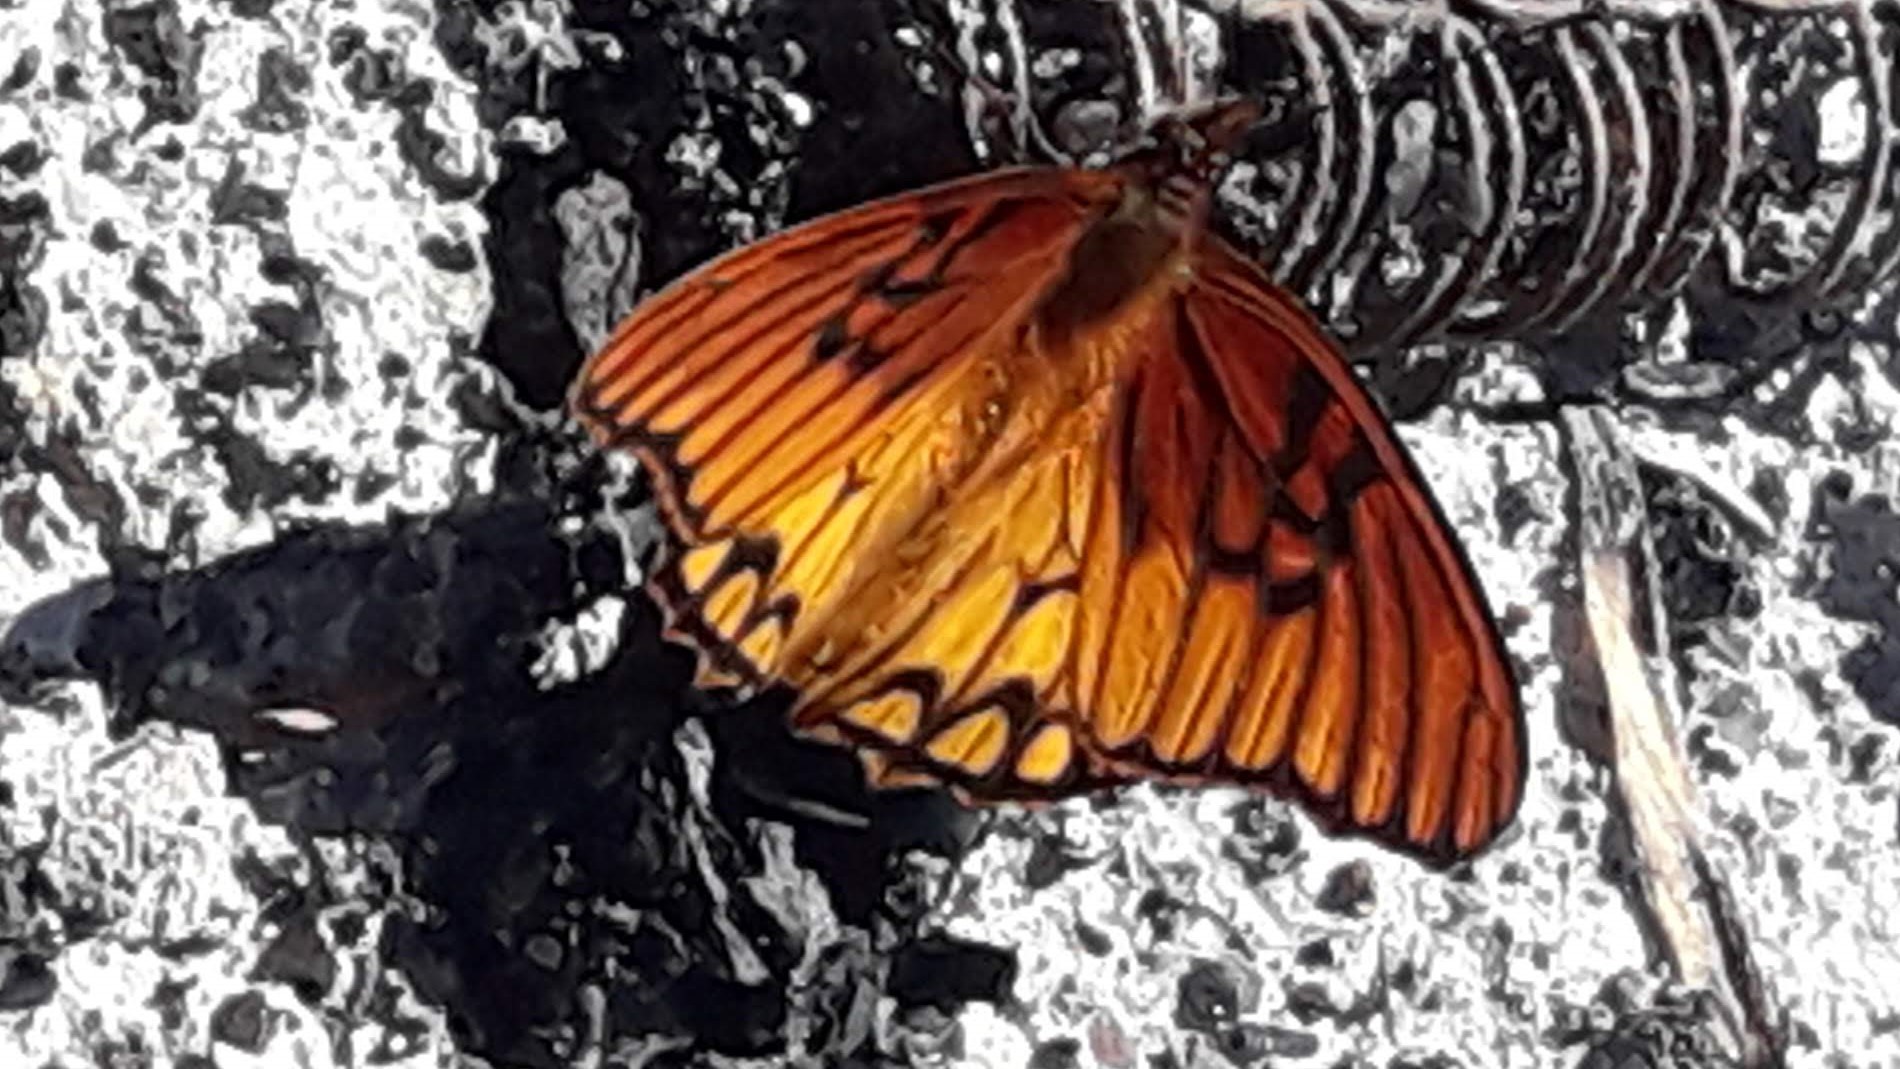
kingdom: Animalia
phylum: Arthropoda
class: Insecta
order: Lepidoptera
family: Nymphalidae
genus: Dione
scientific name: Dione moneta
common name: Mexican silverspot
